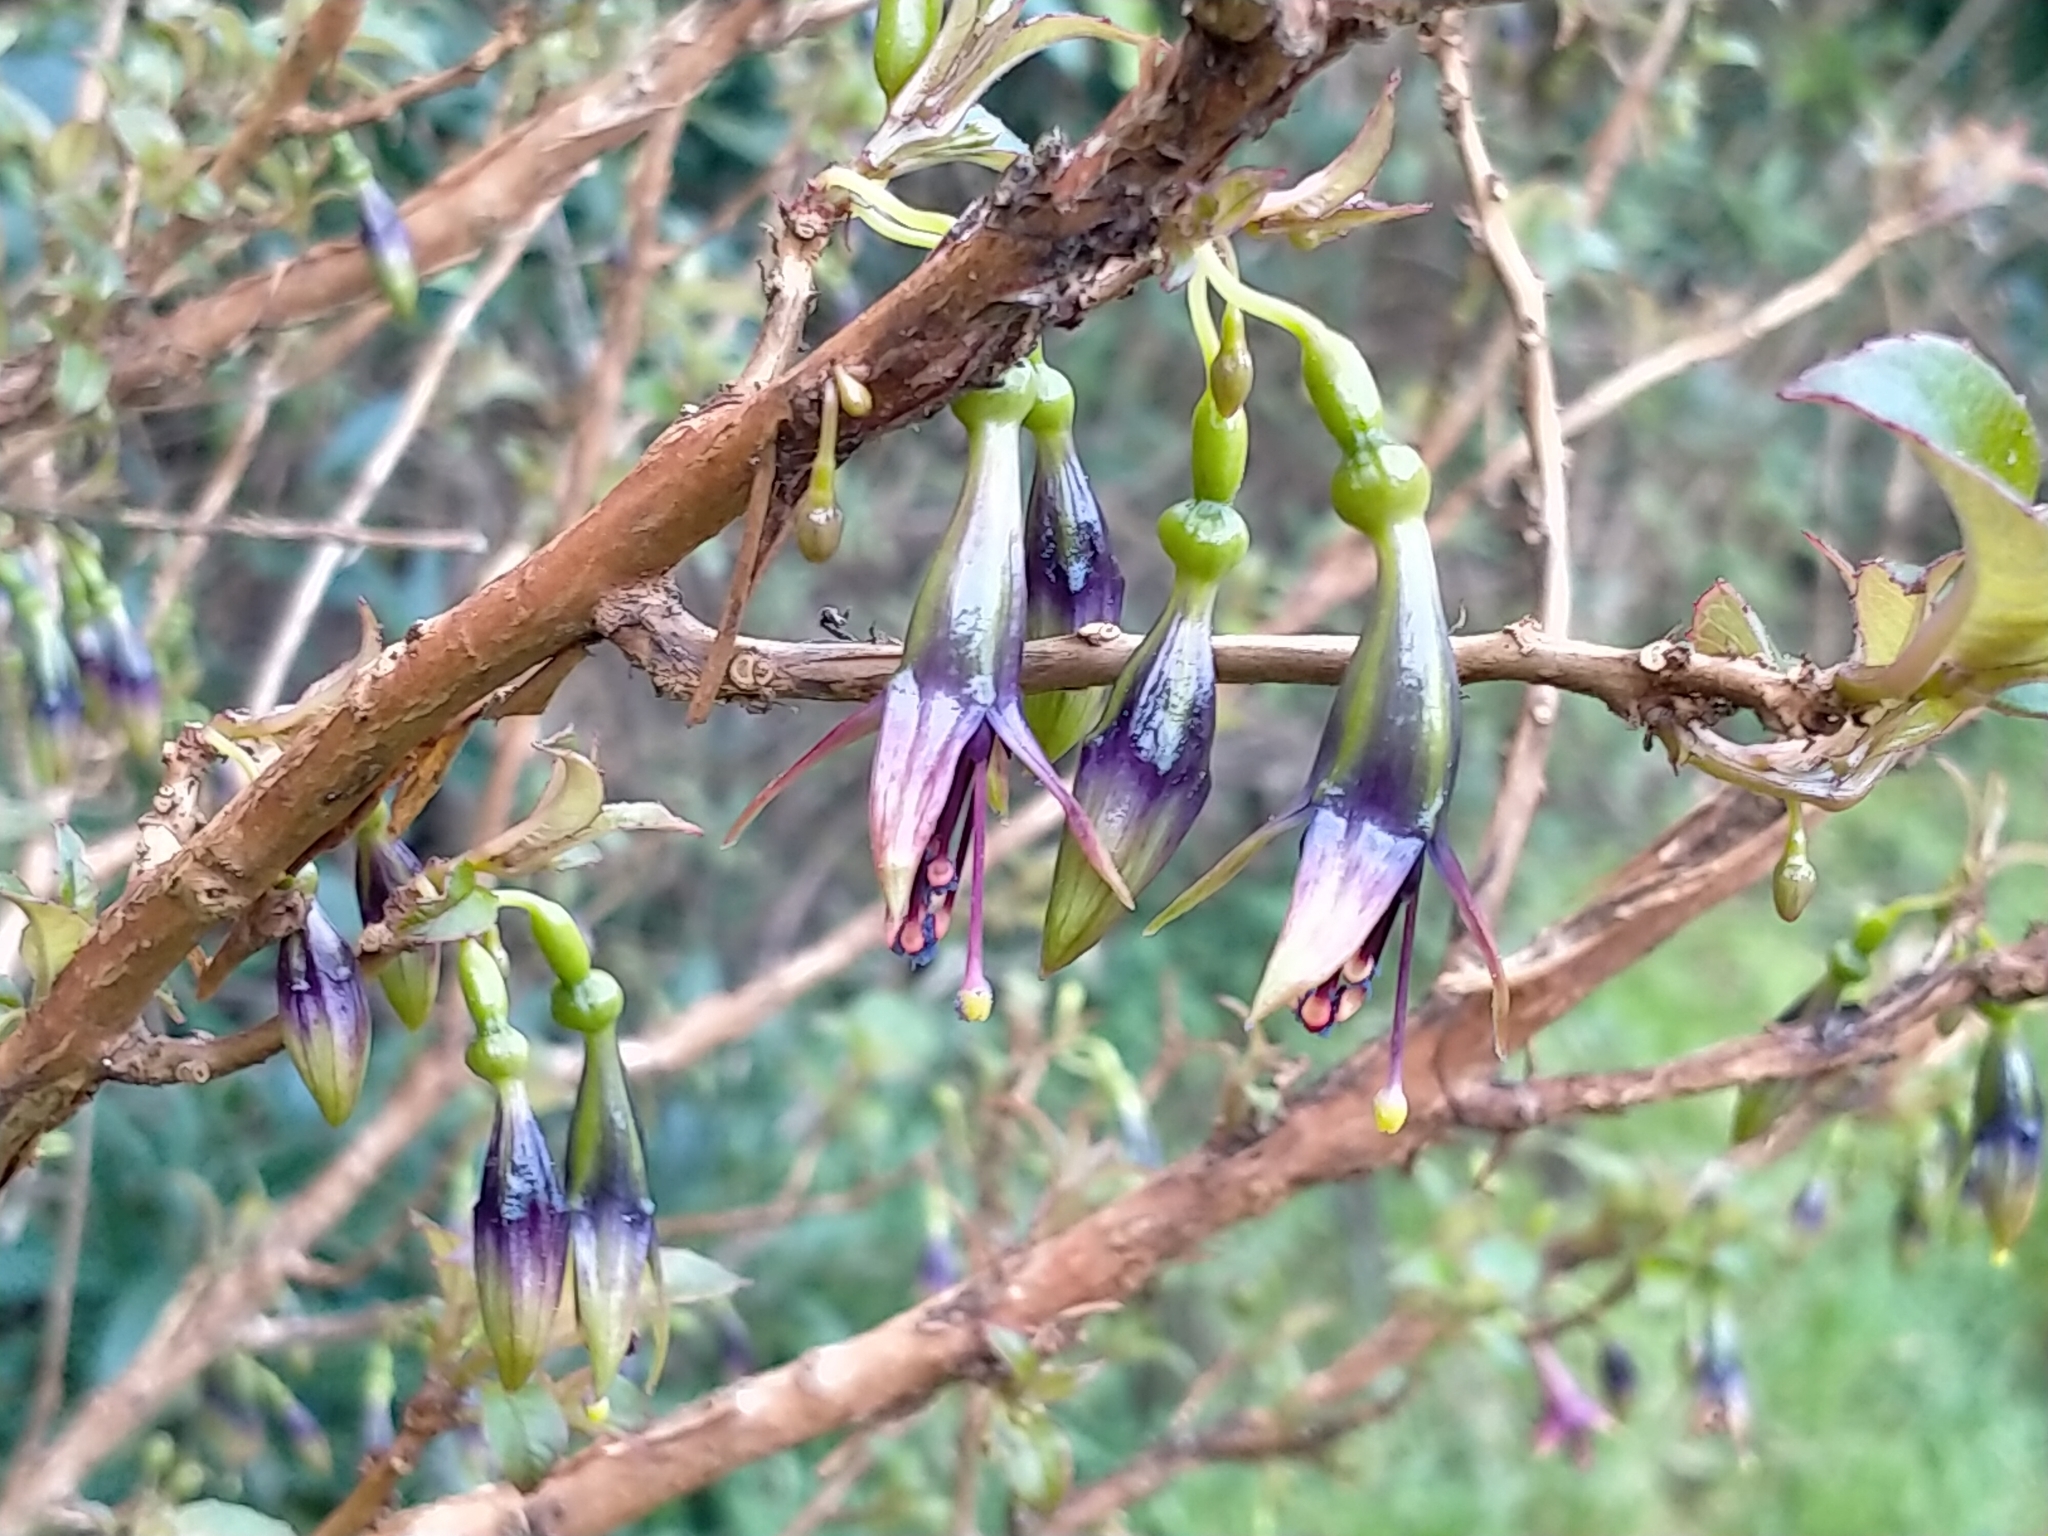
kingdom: Plantae
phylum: Tracheophyta
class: Magnoliopsida
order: Myrtales
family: Onagraceae
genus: Fuchsia
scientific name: Fuchsia excorticata
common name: Tree fuchsia
